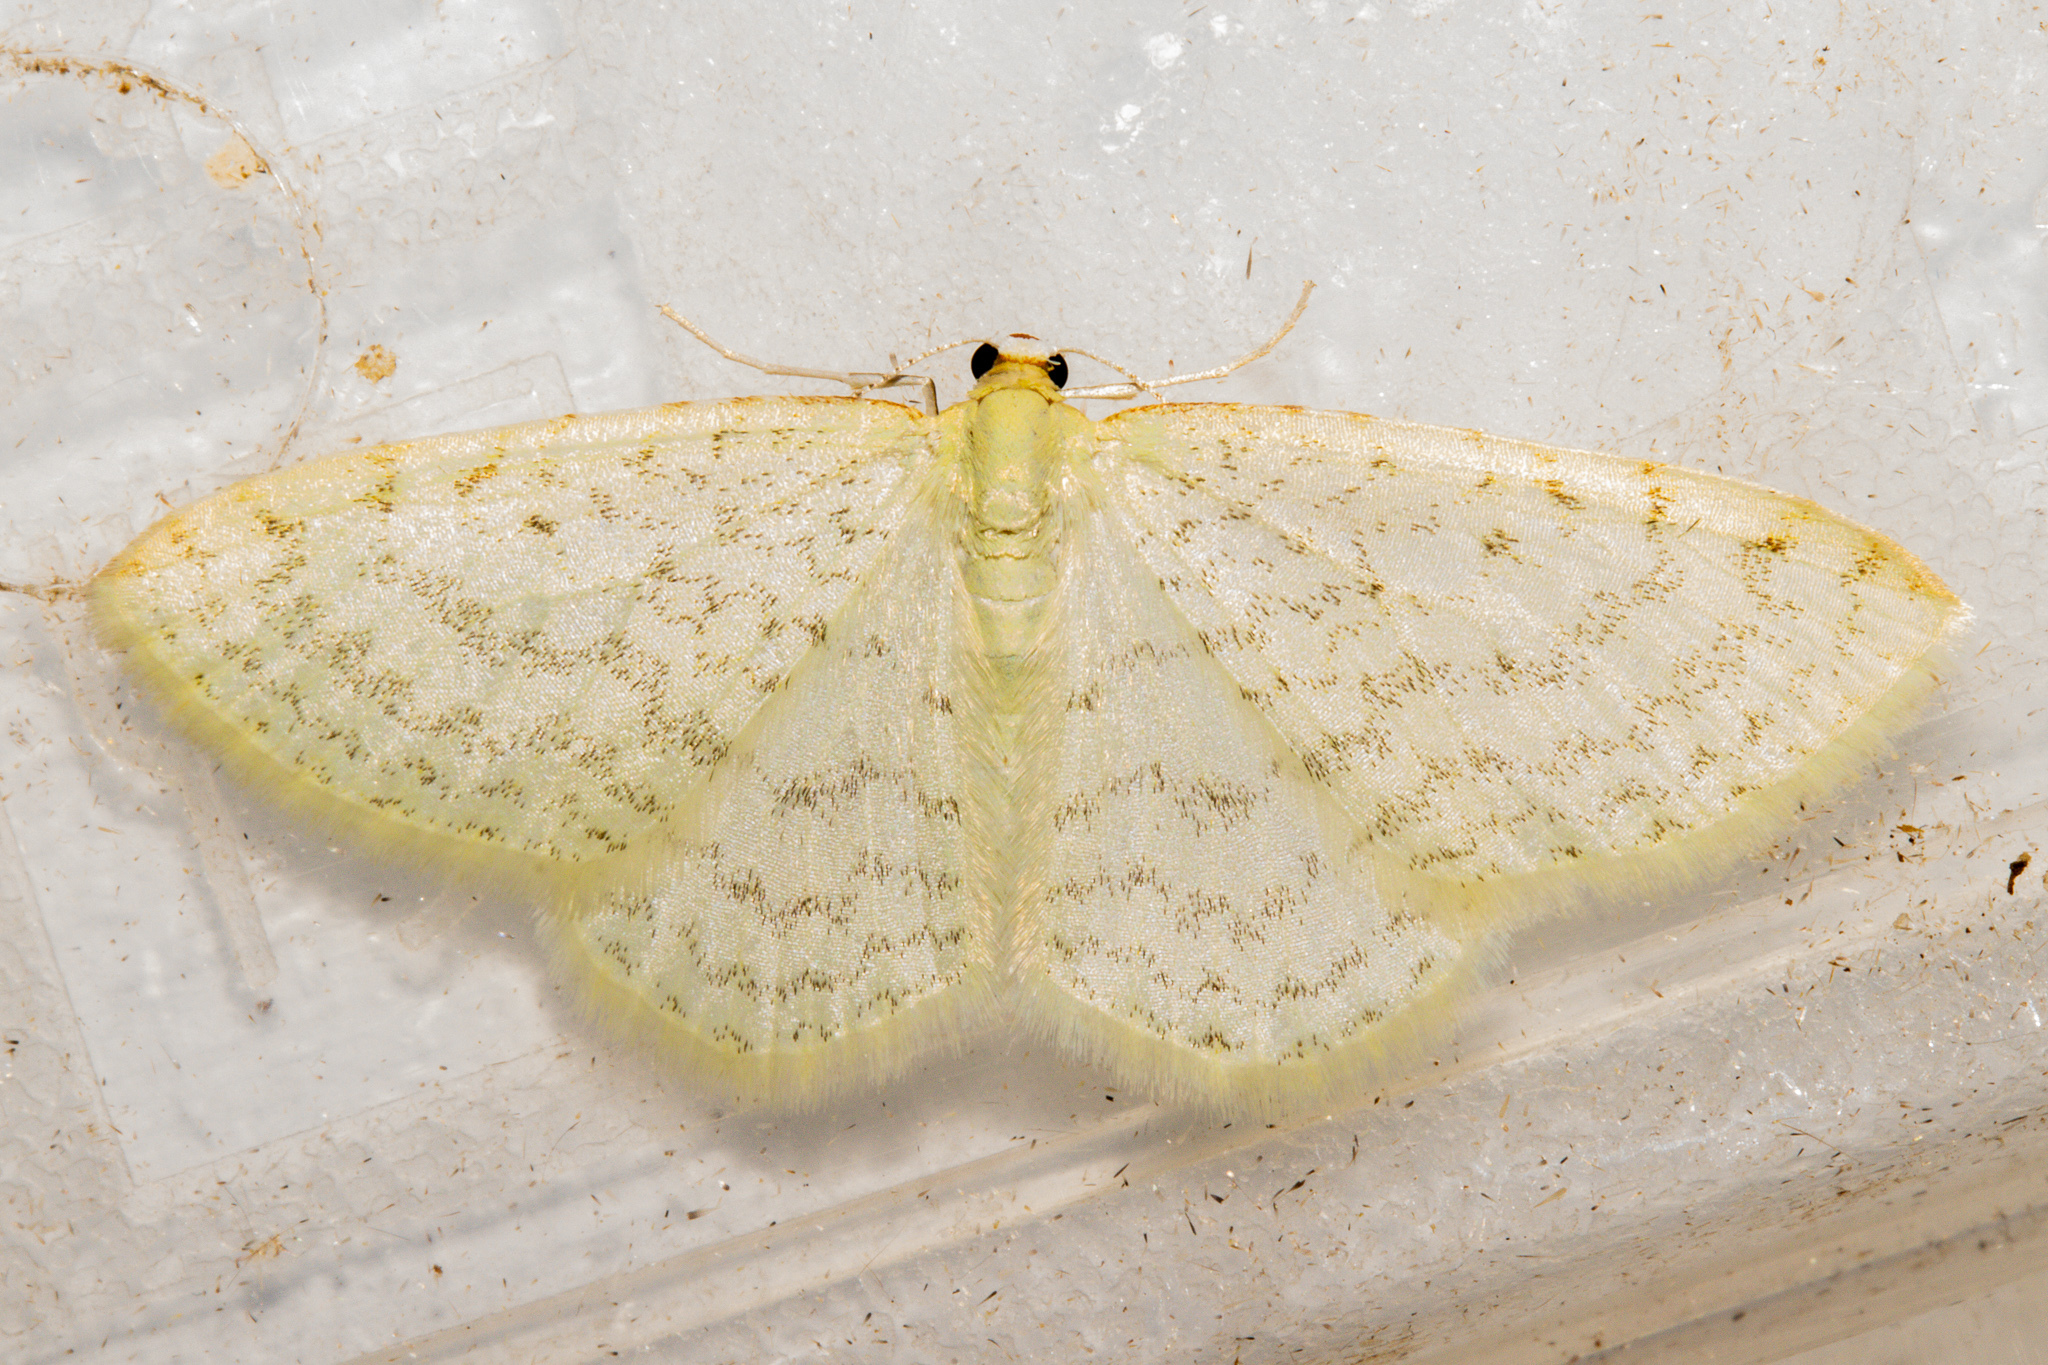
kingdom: Animalia
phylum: Arthropoda
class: Insecta
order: Lepidoptera
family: Geometridae
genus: Epiphryne
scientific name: Epiphryne undosata
